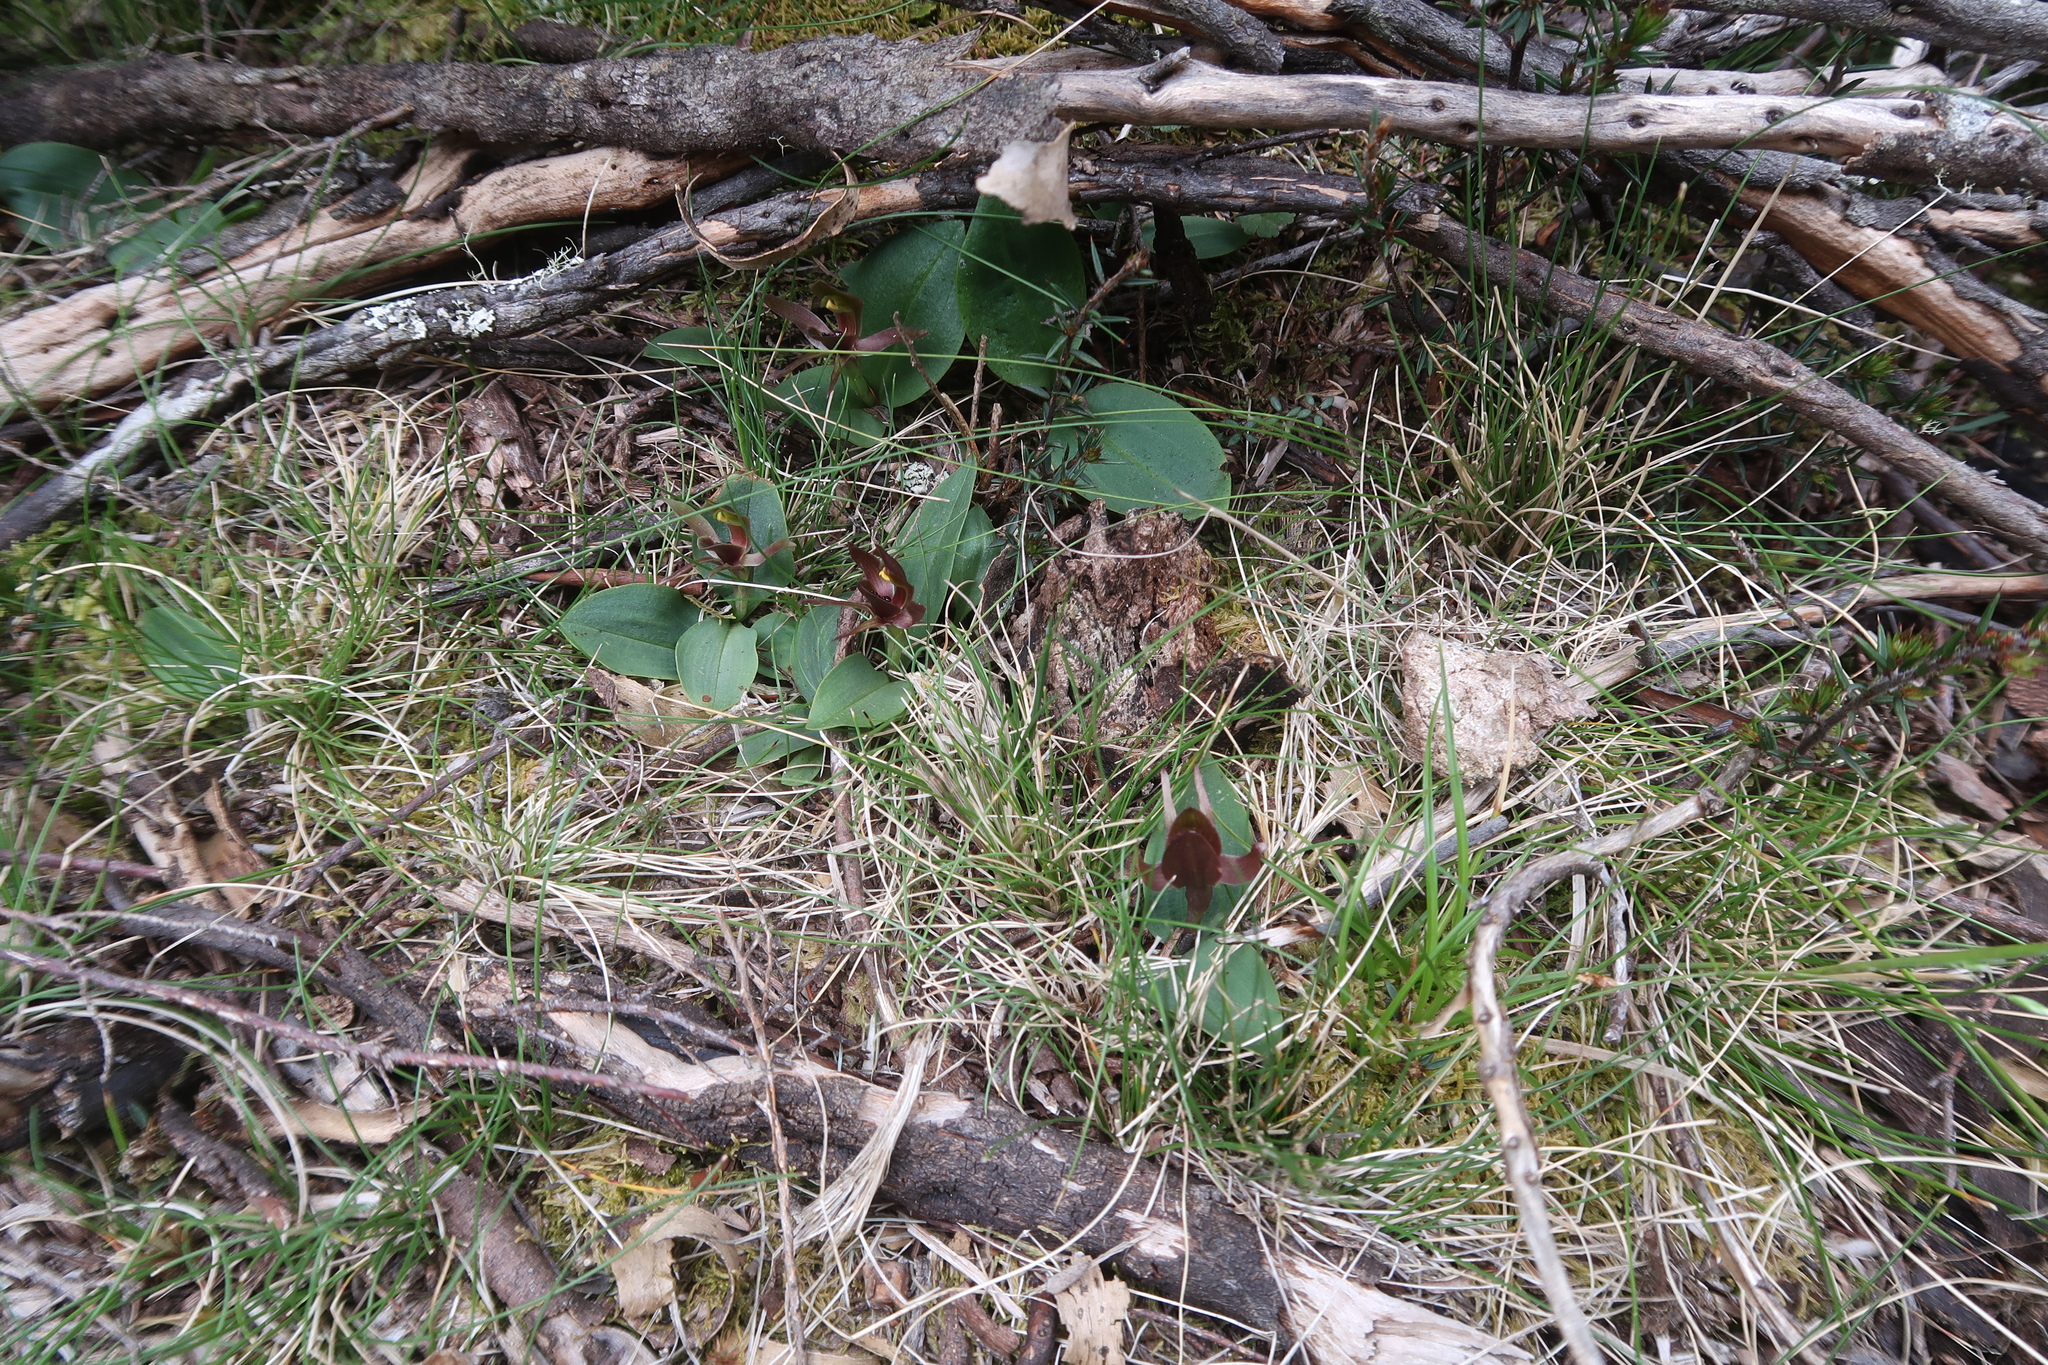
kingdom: Plantae
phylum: Tracheophyta
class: Liliopsida
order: Asparagales
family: Orchidaceae
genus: Chiloglottis
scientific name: Chiloglottis grammata
